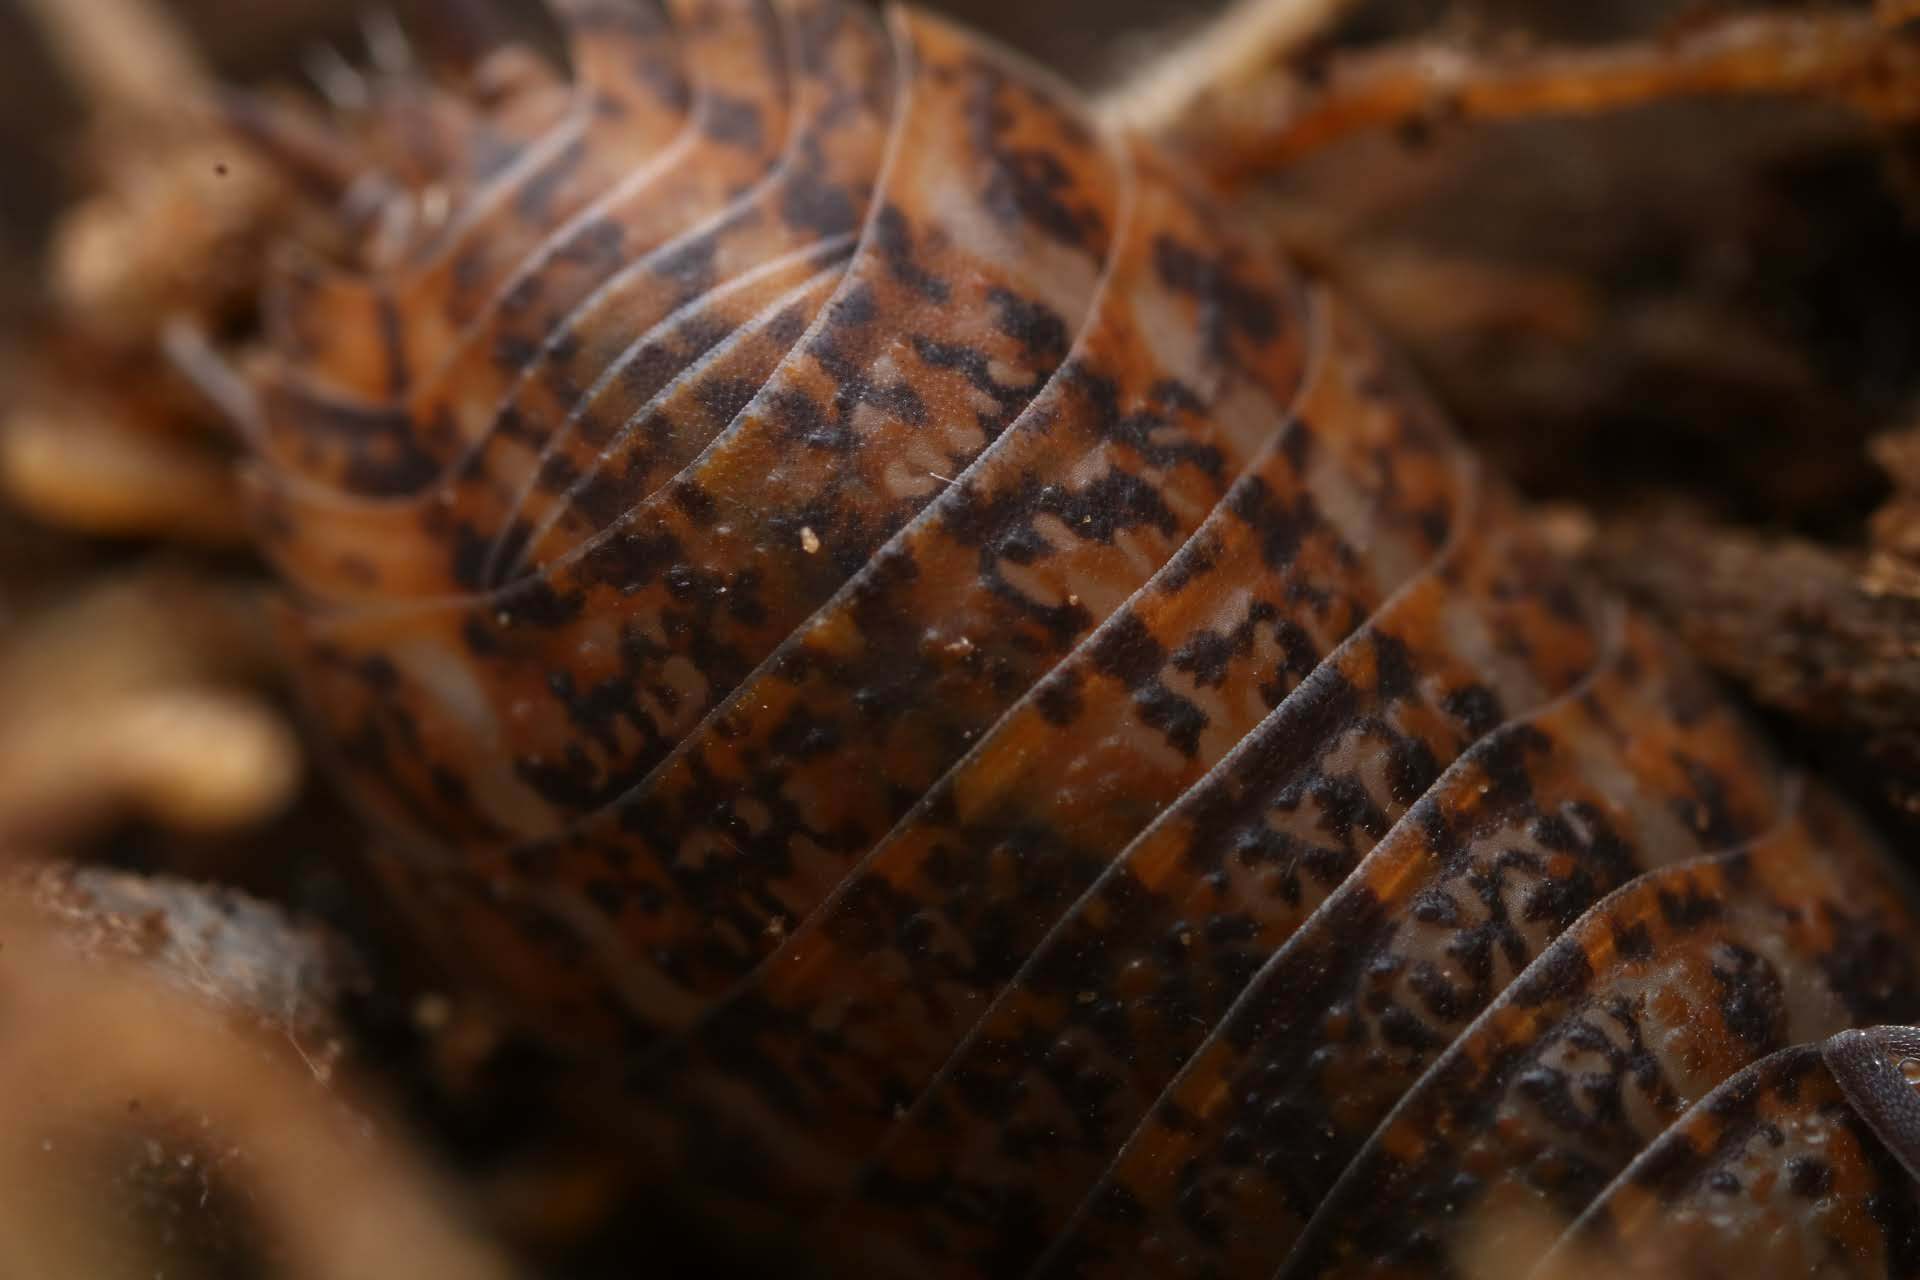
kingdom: Animalia
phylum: Arthropoda
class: Malacostraca
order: Isopoda
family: Trachelipodidae
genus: Trachelipus
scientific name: Trachelipus rathkii
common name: Isopod
